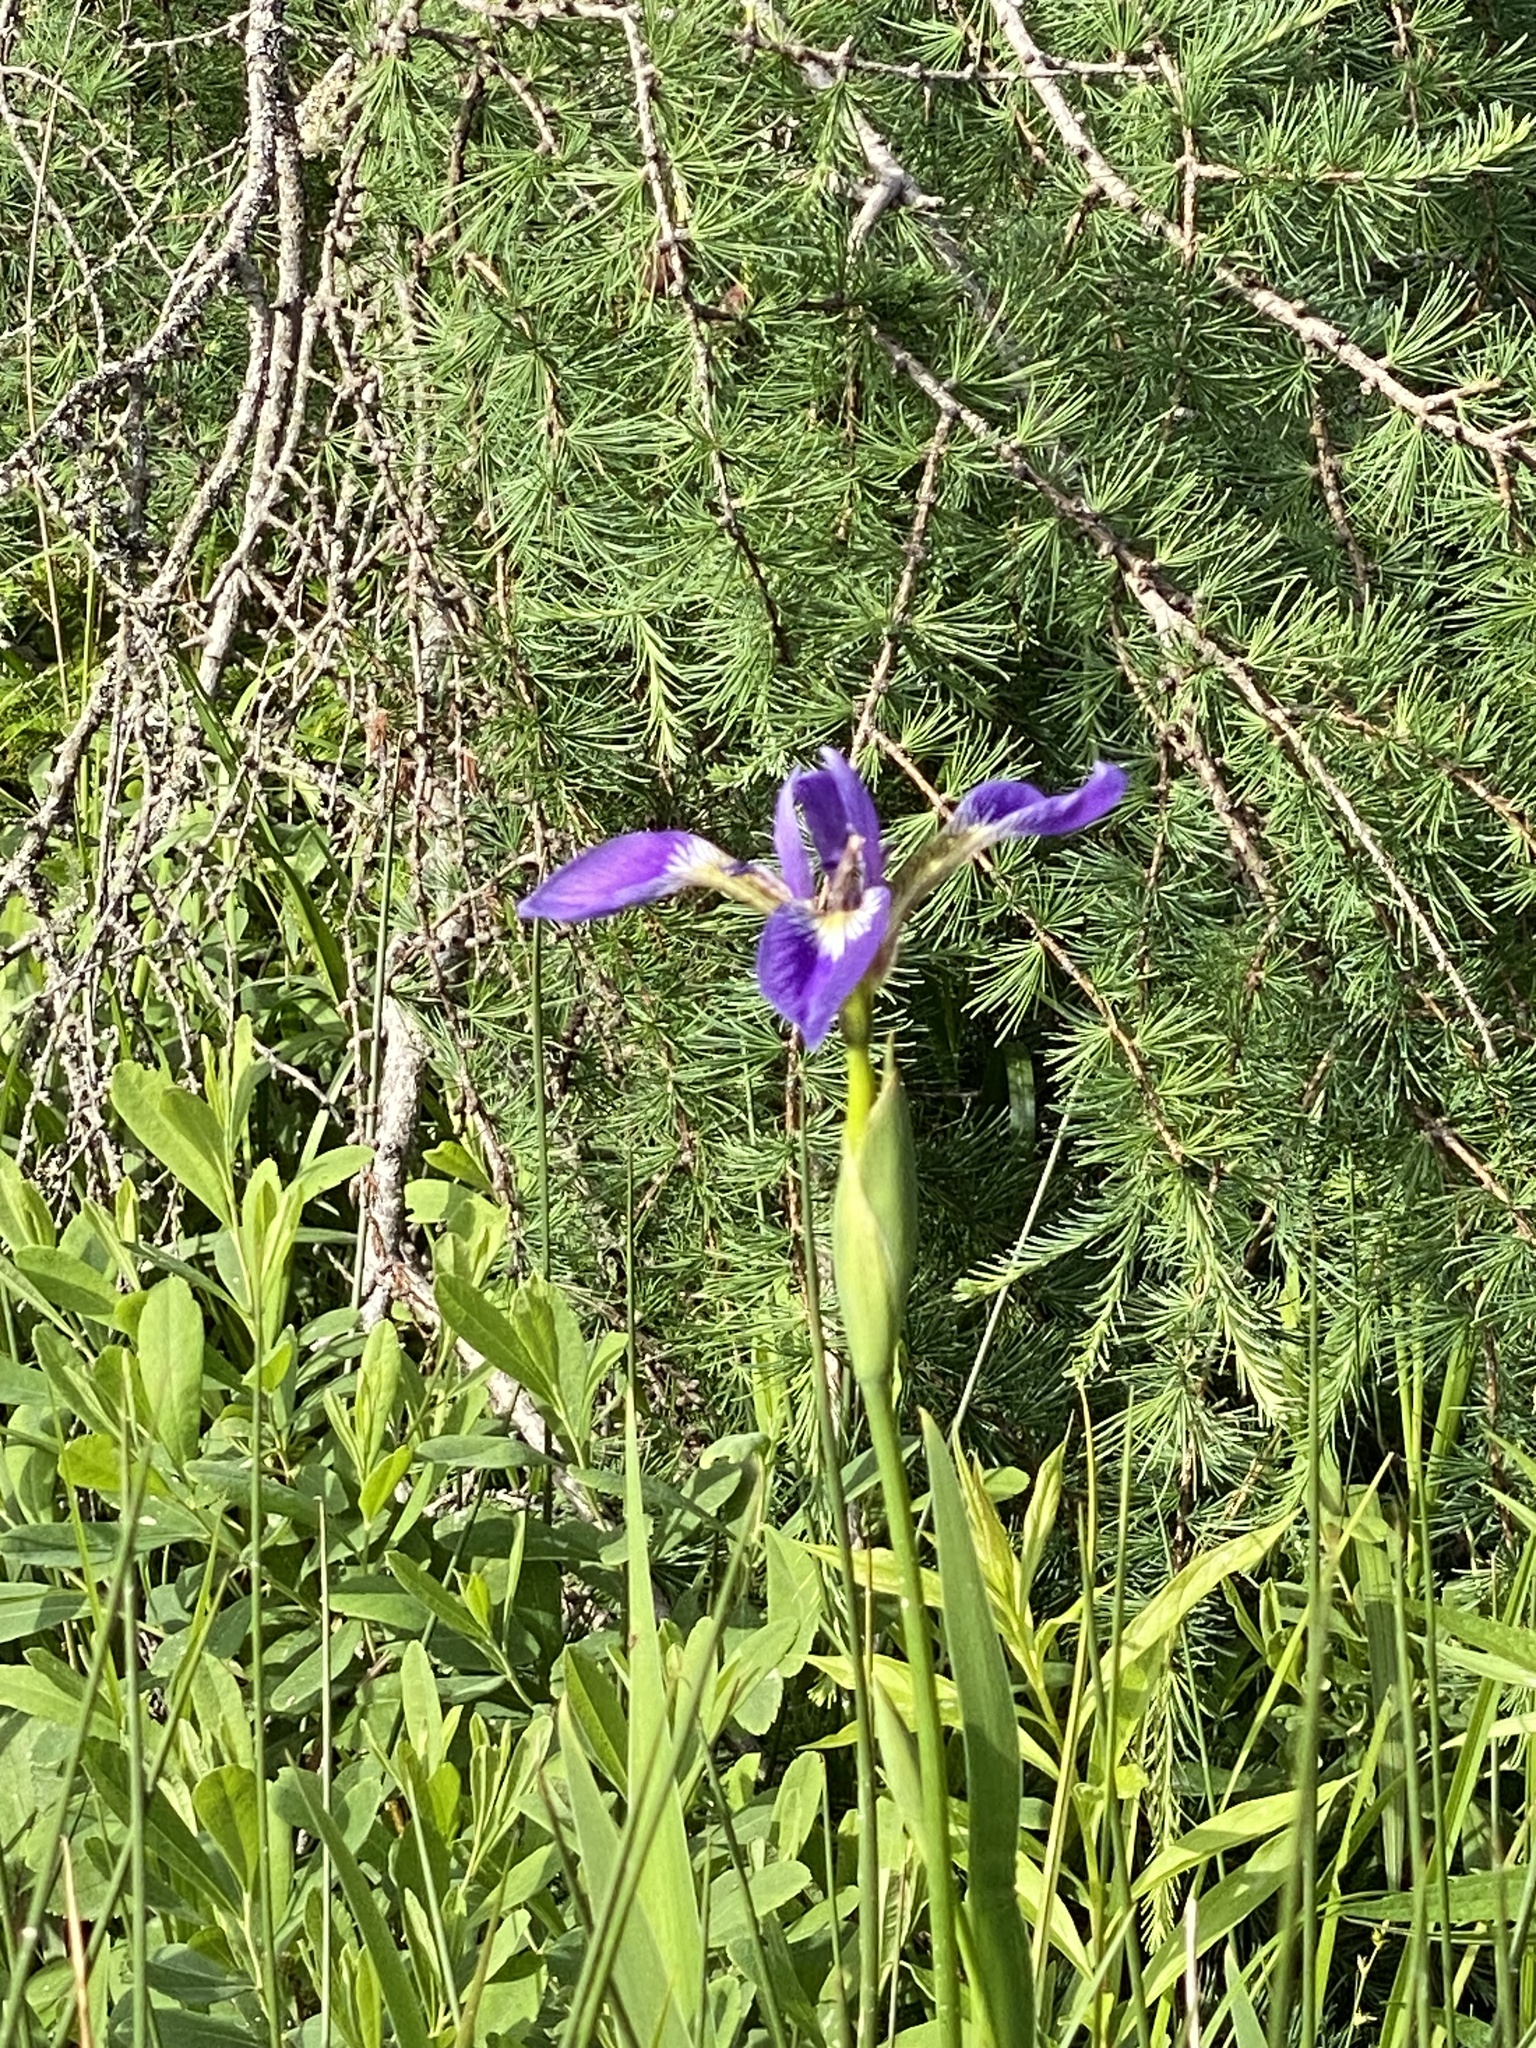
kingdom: Plantae
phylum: Tracheophyta
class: Liliopsida
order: Asparagales
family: Iridaceae
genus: Iris
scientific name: Iris versicolor
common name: Purple iris
